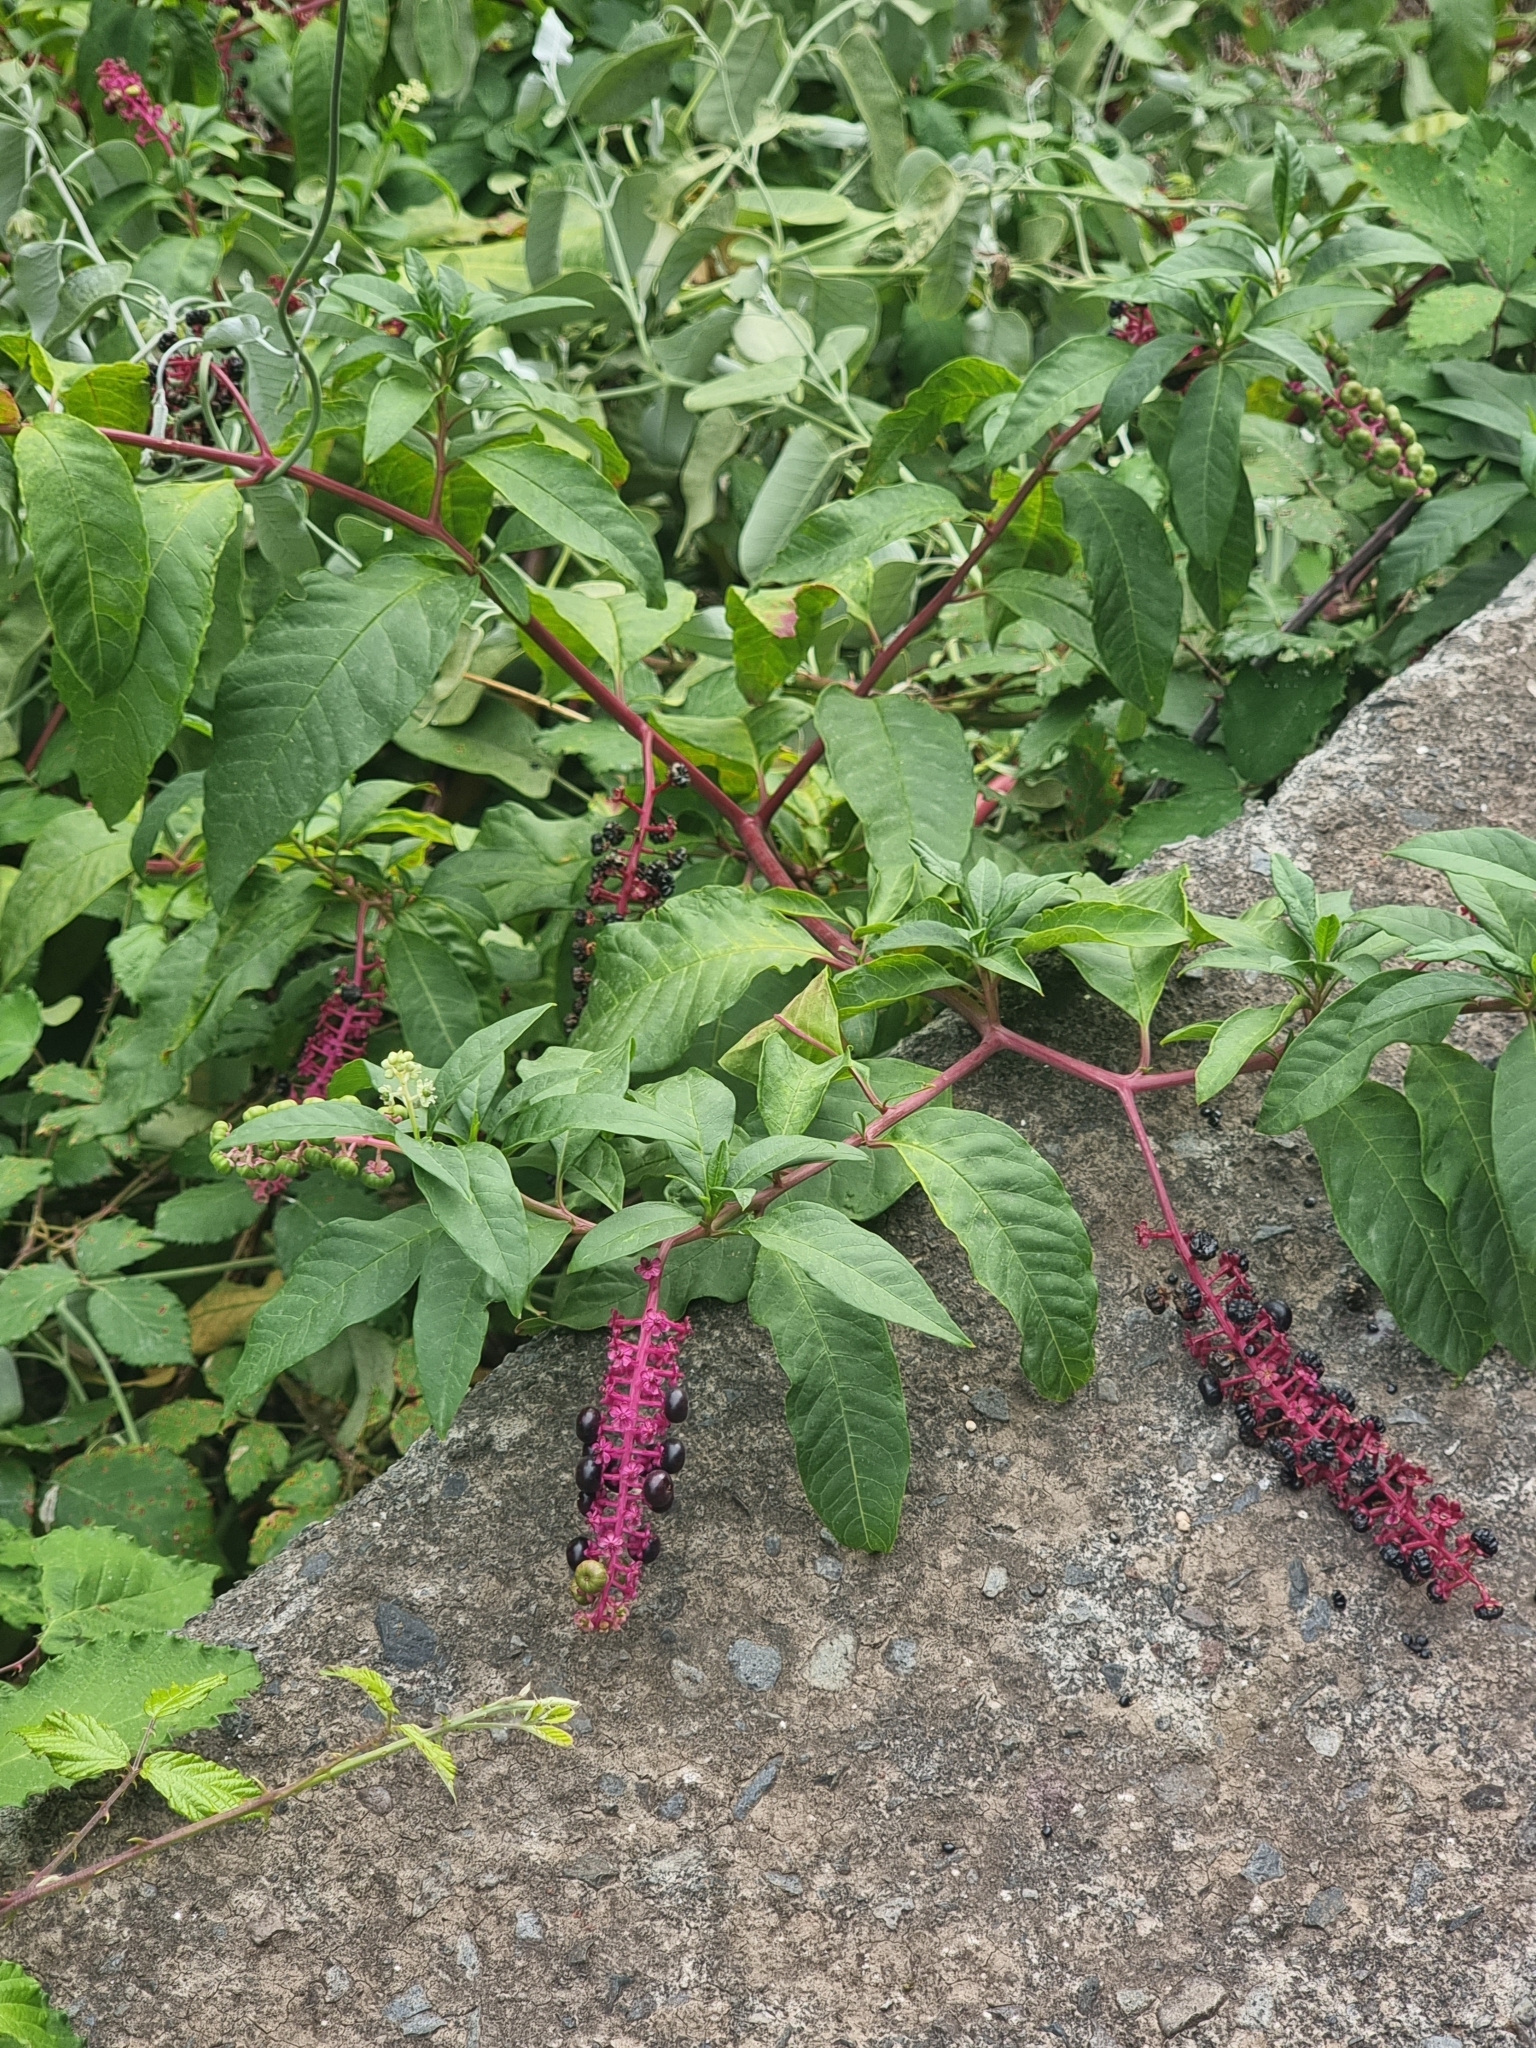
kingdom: Plantae
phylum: Tracheophyta
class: Magnoliopsida
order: Caryophyllales
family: Phytolaccaceae
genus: Phytolacca
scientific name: Phytolacca americana
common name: American pokeweed
